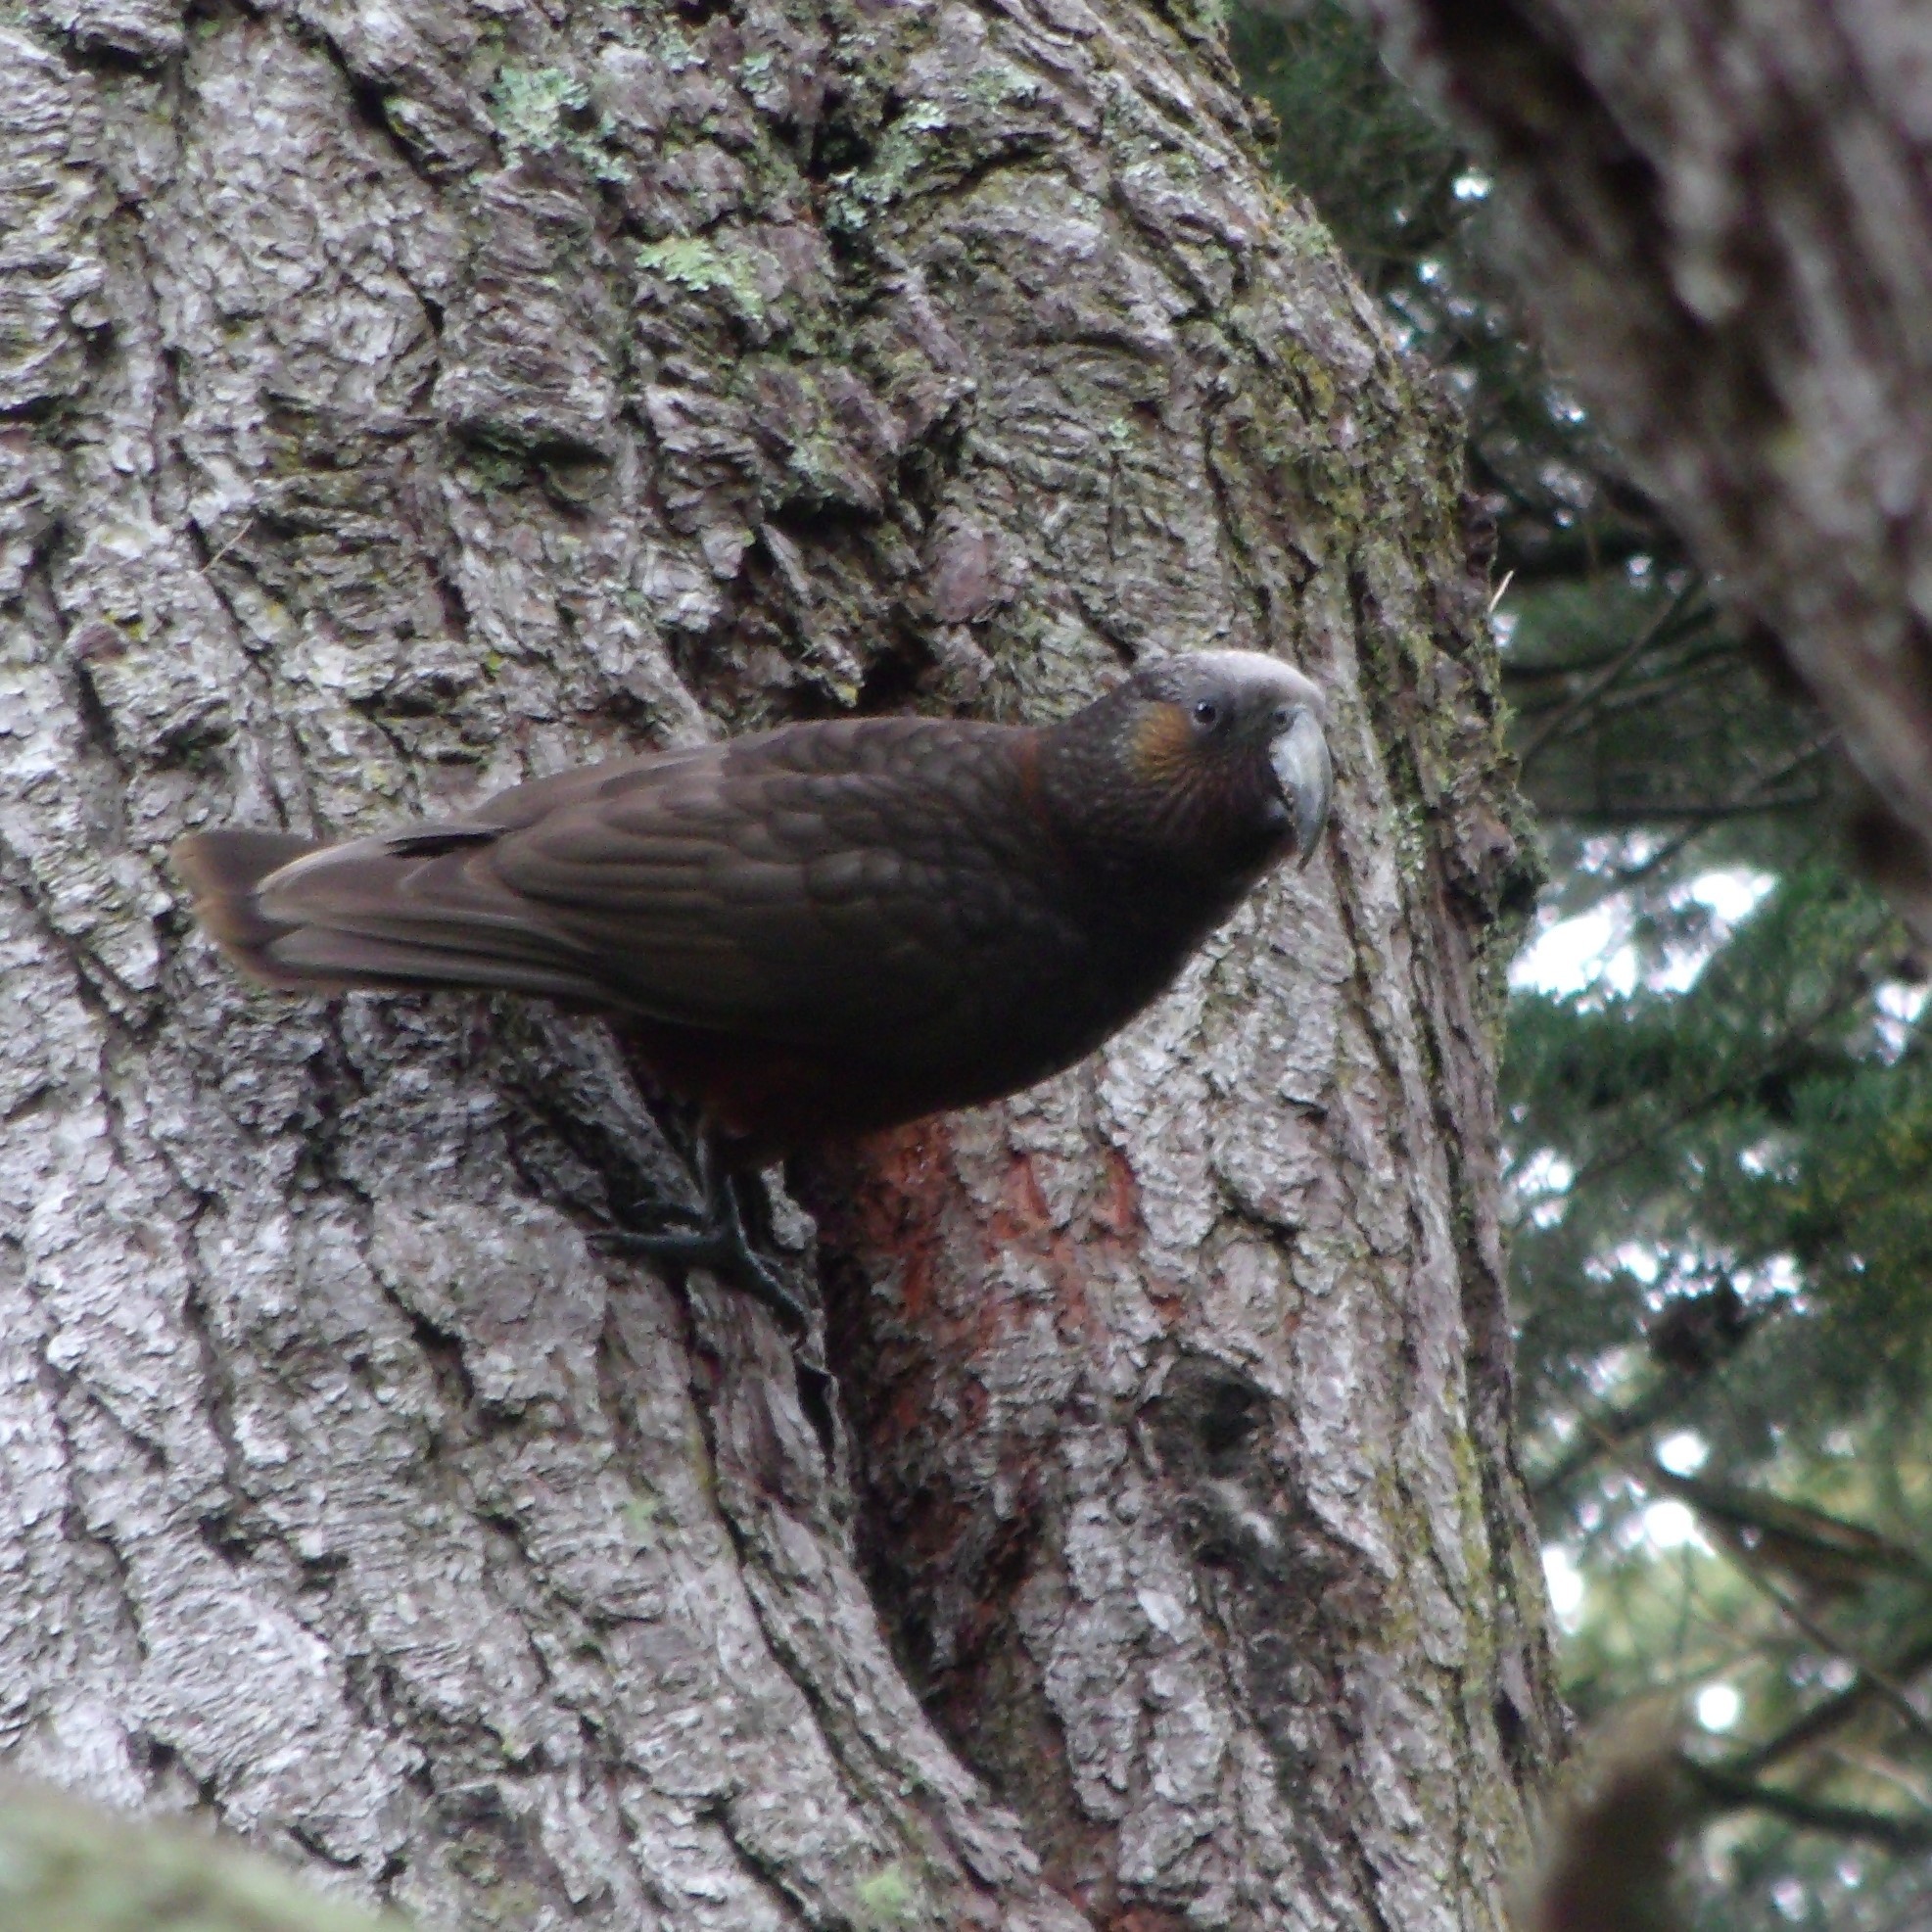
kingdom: Animalia
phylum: Chordata
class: Aves
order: Psittaciformes
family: Psittacidae
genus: Nestor
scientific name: Nestor meridionalis
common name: New zealand kaka
